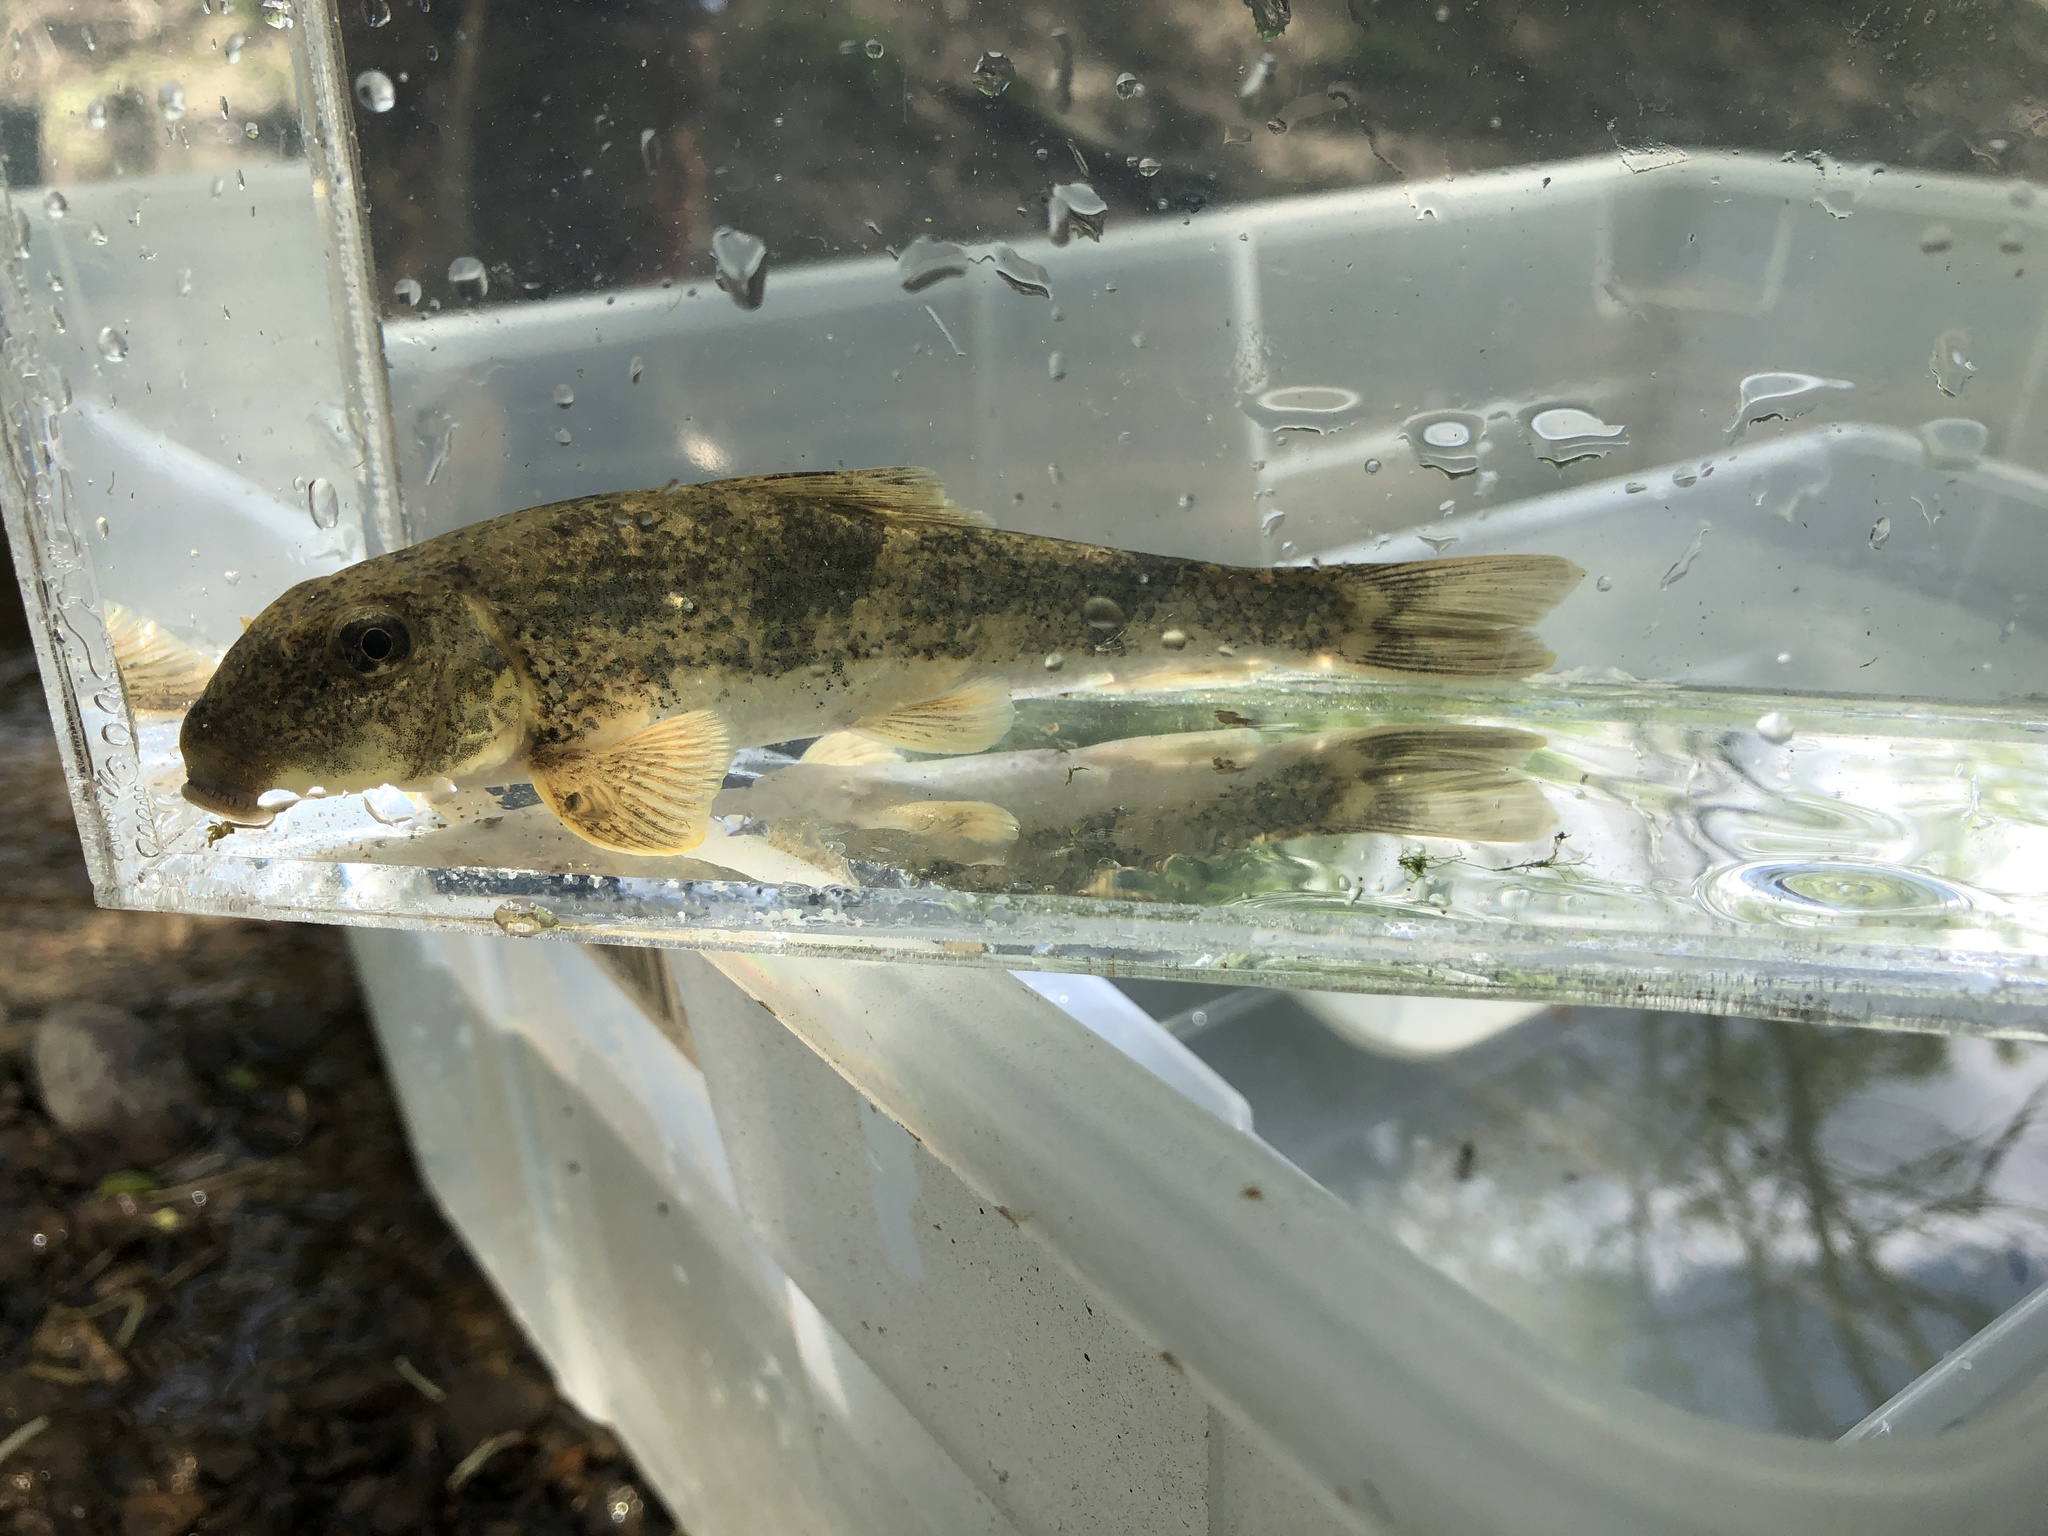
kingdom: Animalia
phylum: Chordata
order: Cypriniformes
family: Catostomidae
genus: Hypentelium
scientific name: Hypentelium nigricans
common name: Northern hog sucker
